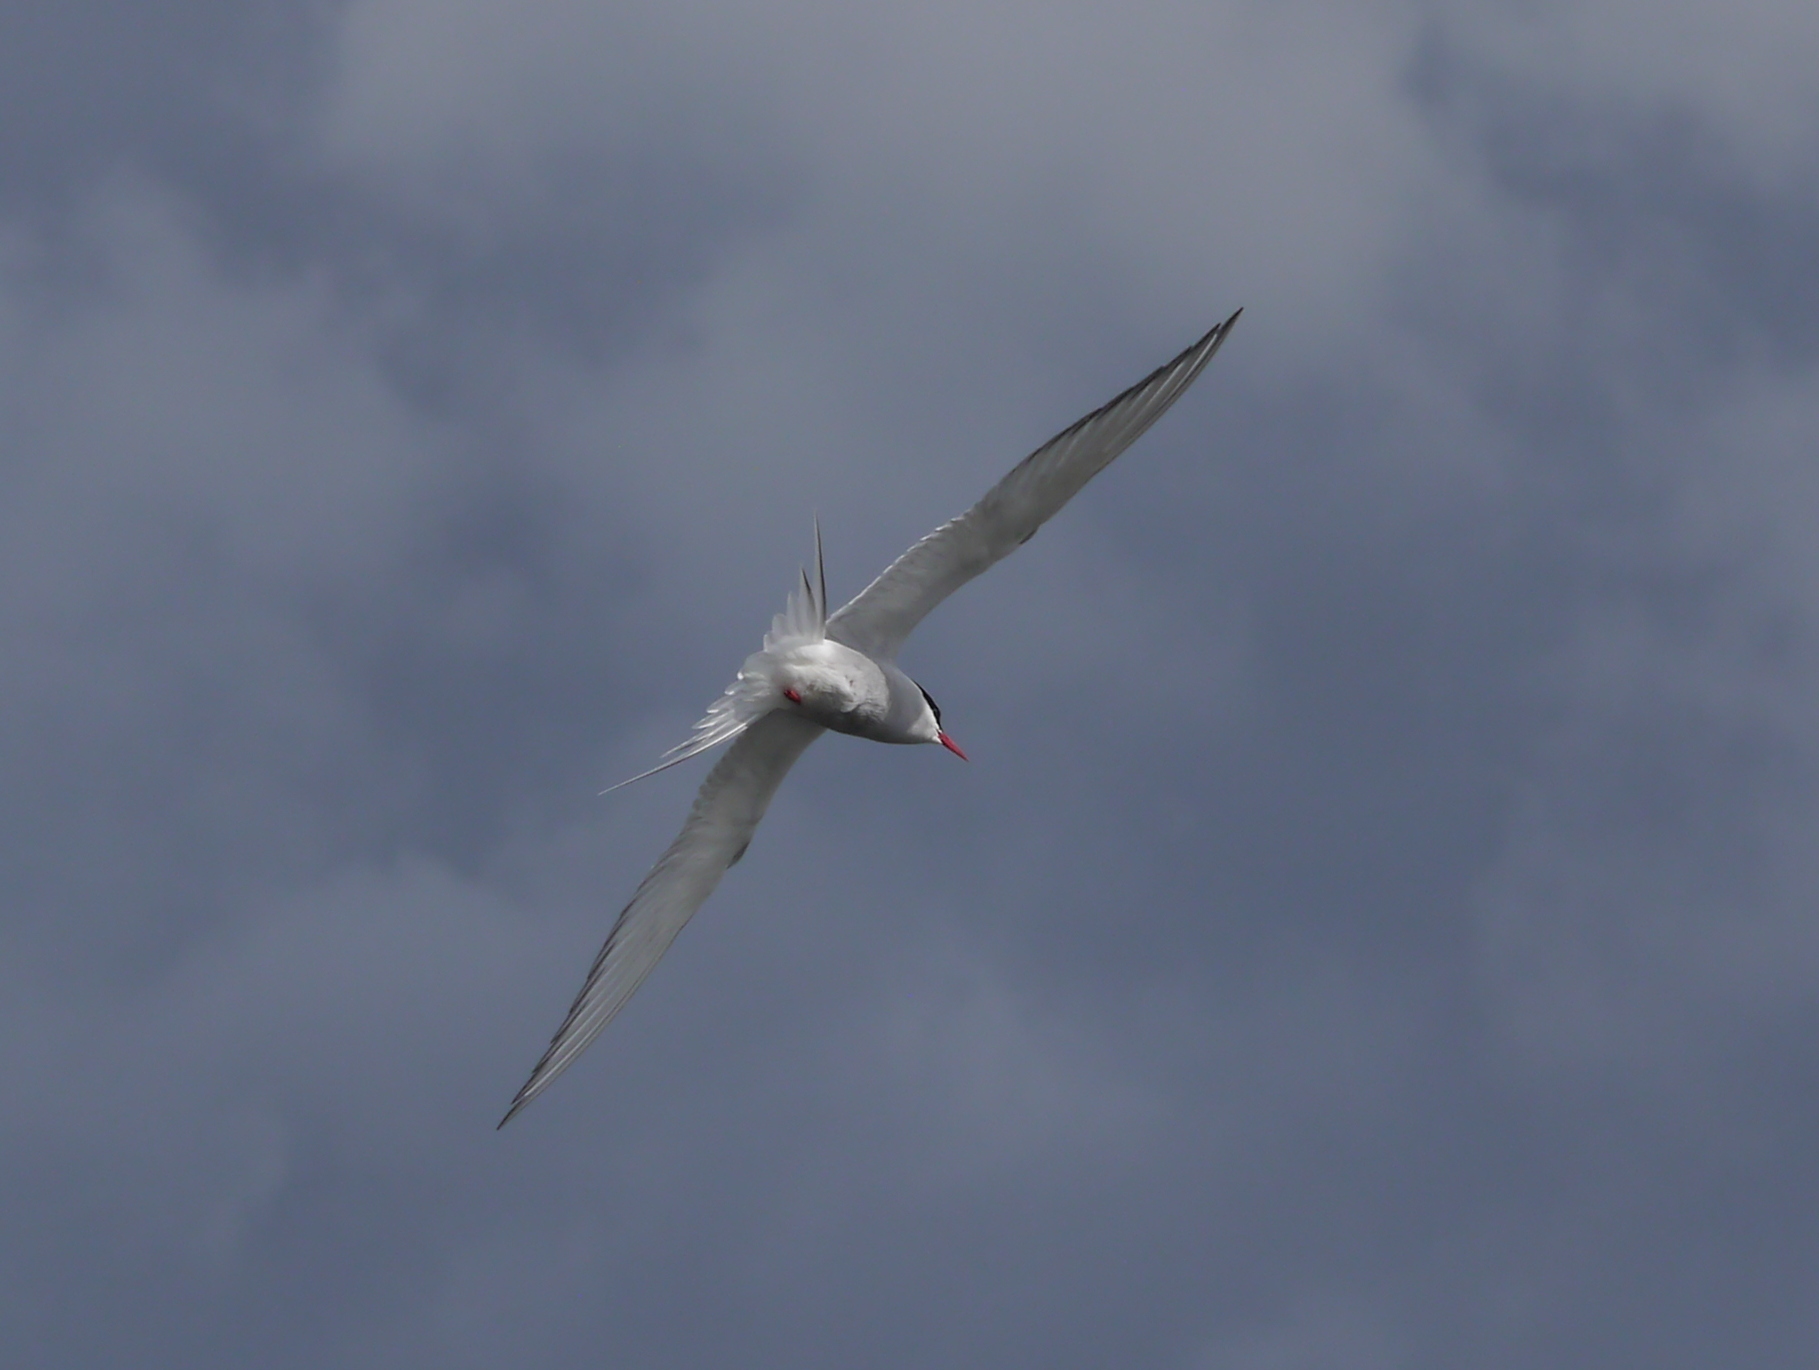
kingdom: Animalia
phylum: Chordata
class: Aves
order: Charadriiformes
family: Laridae
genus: Sterna
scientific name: Sterna paradisaea
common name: Arctic tern
